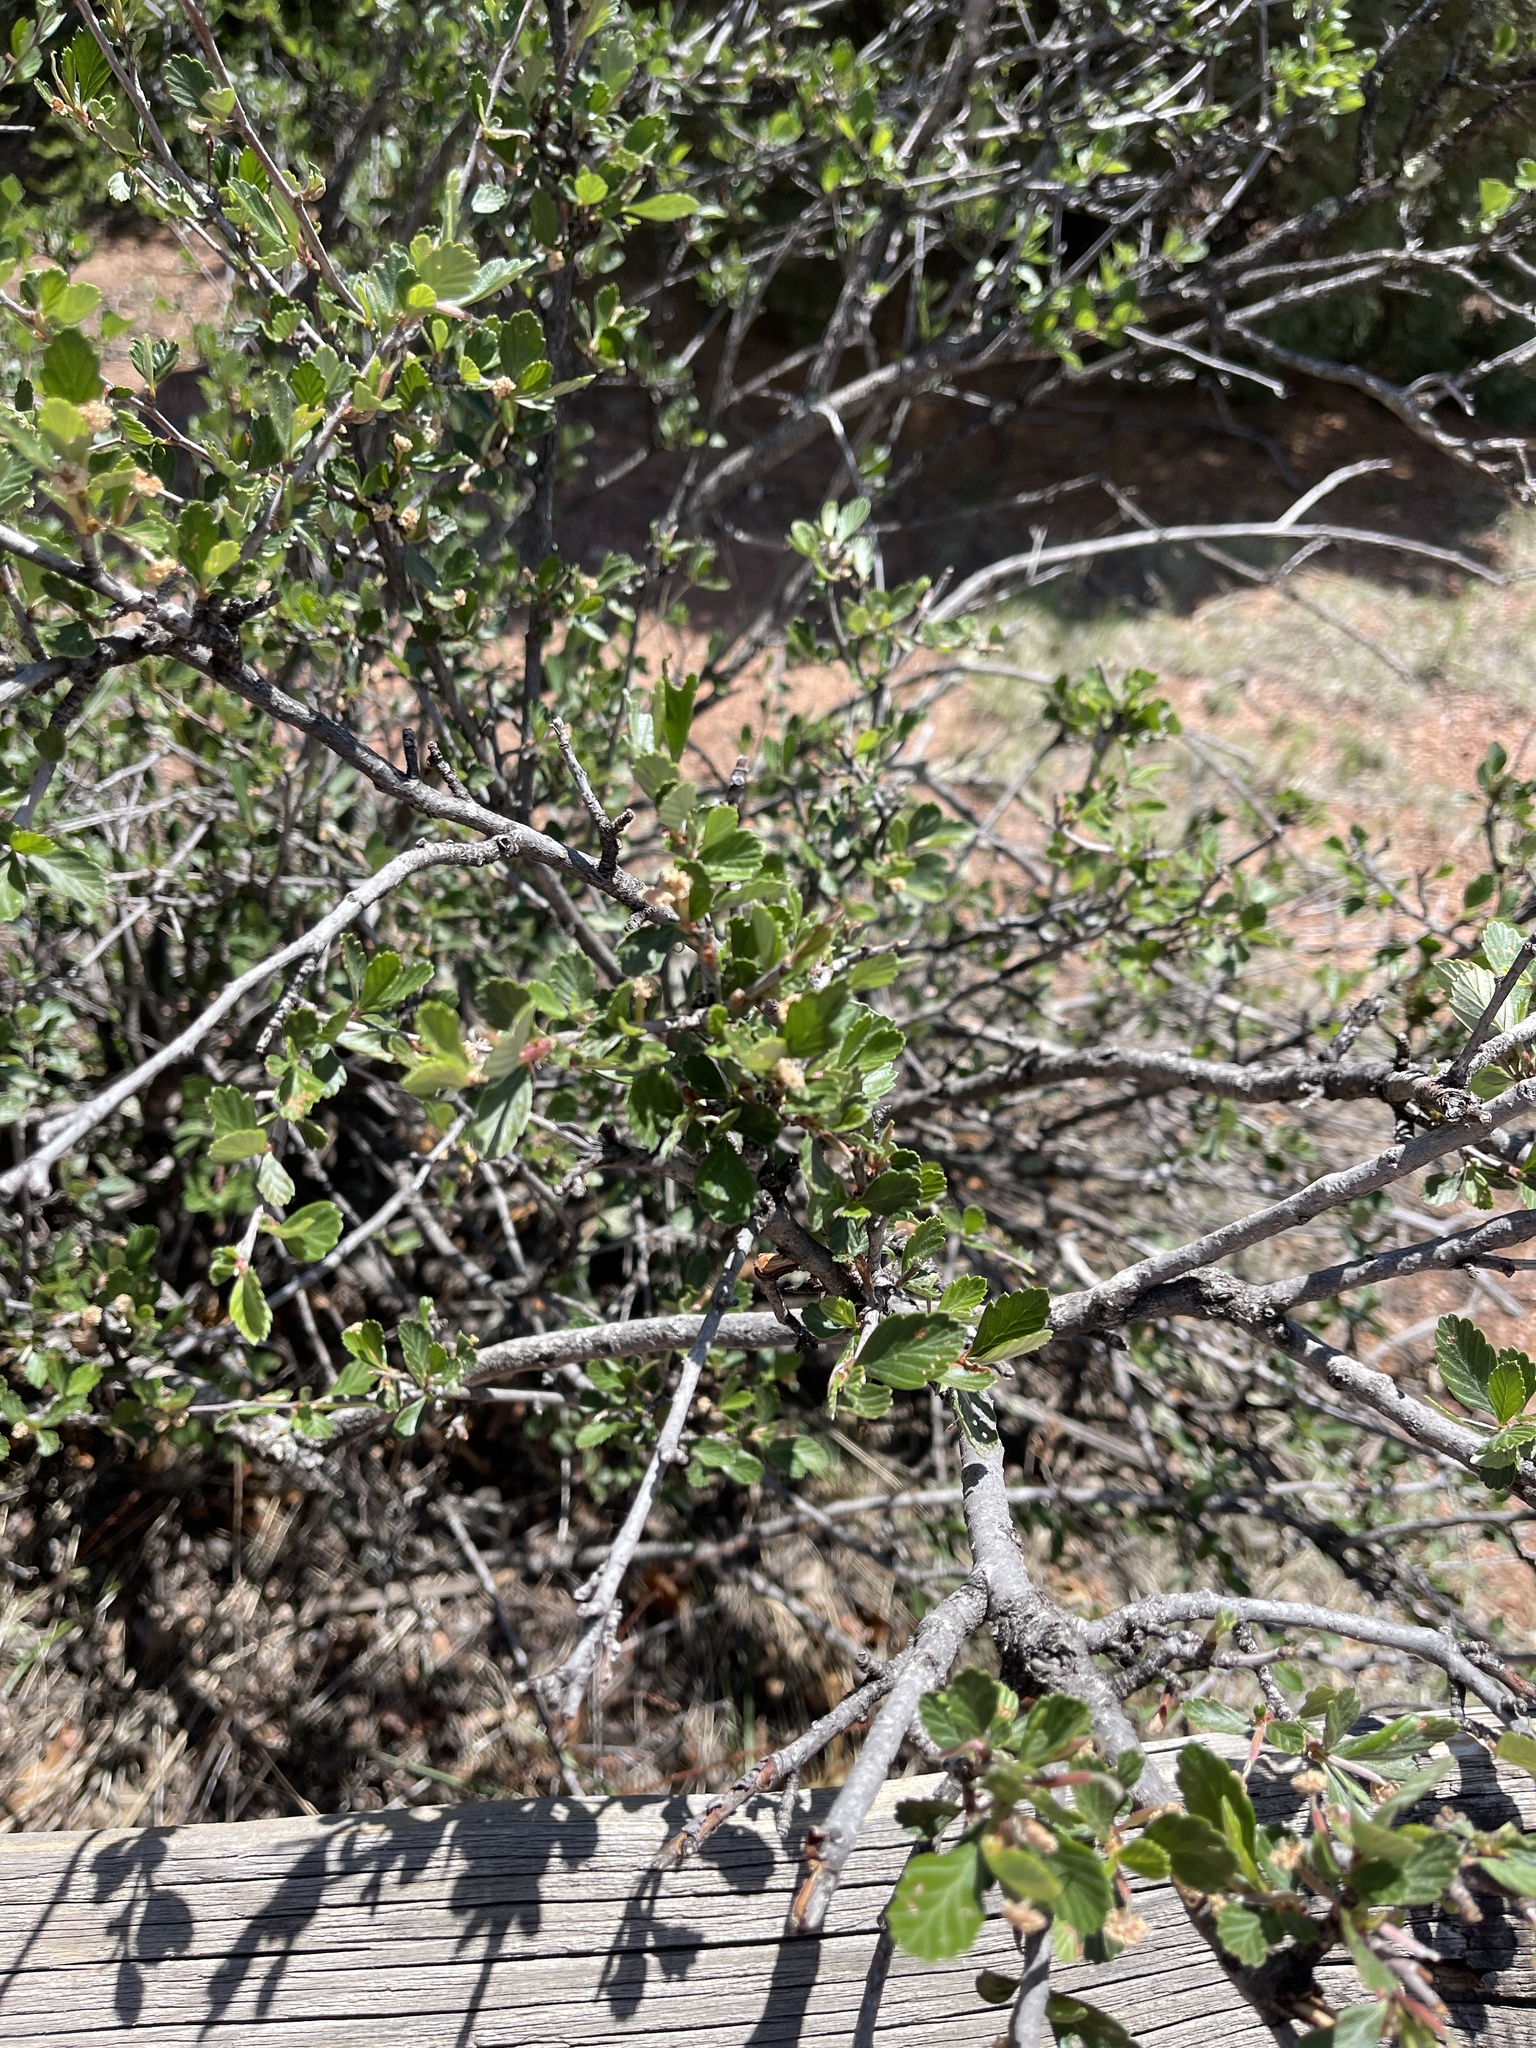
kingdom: Plantae
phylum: Tracheophyta
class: Magnoliopsida
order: Sapindales
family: Anacardiaceae
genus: Rhus
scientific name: Rhus trilobata
